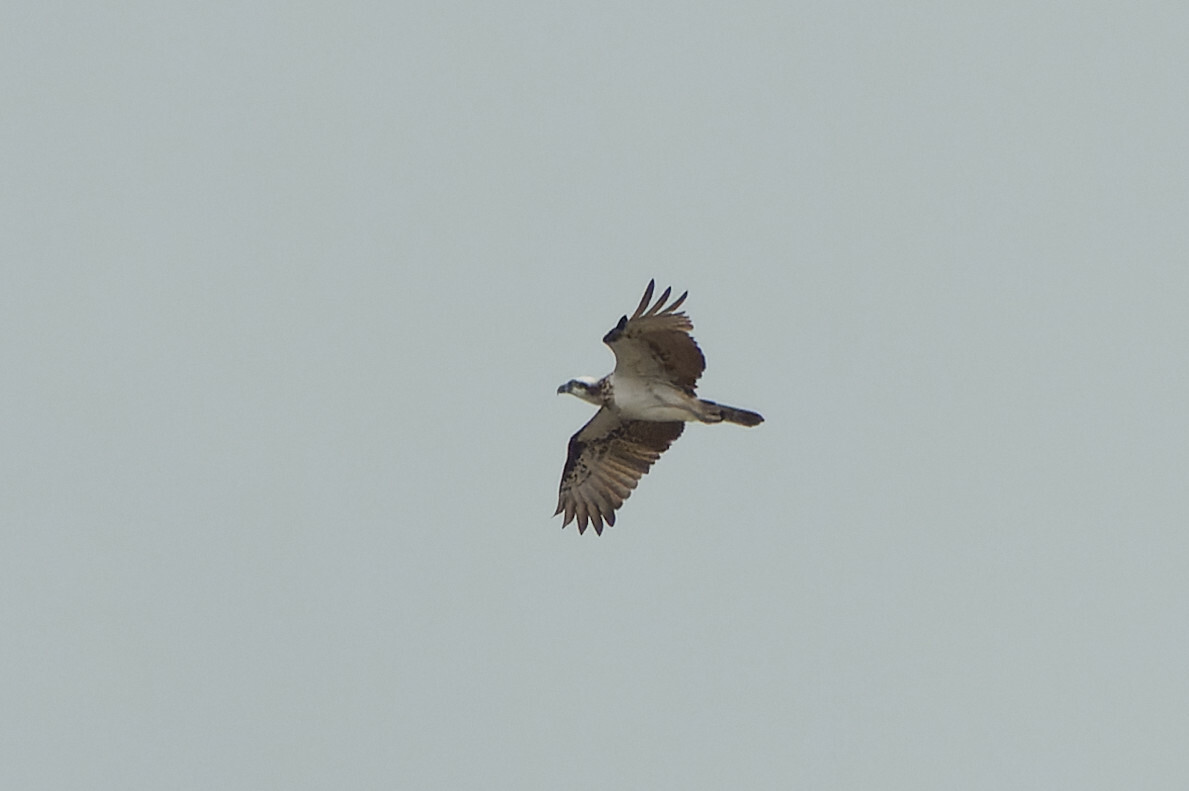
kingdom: Animalia
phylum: Chordata
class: Aves
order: Accipitriformes
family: Pandionidae
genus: Pandion
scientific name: Pandion cristatus
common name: Eastern osprey
